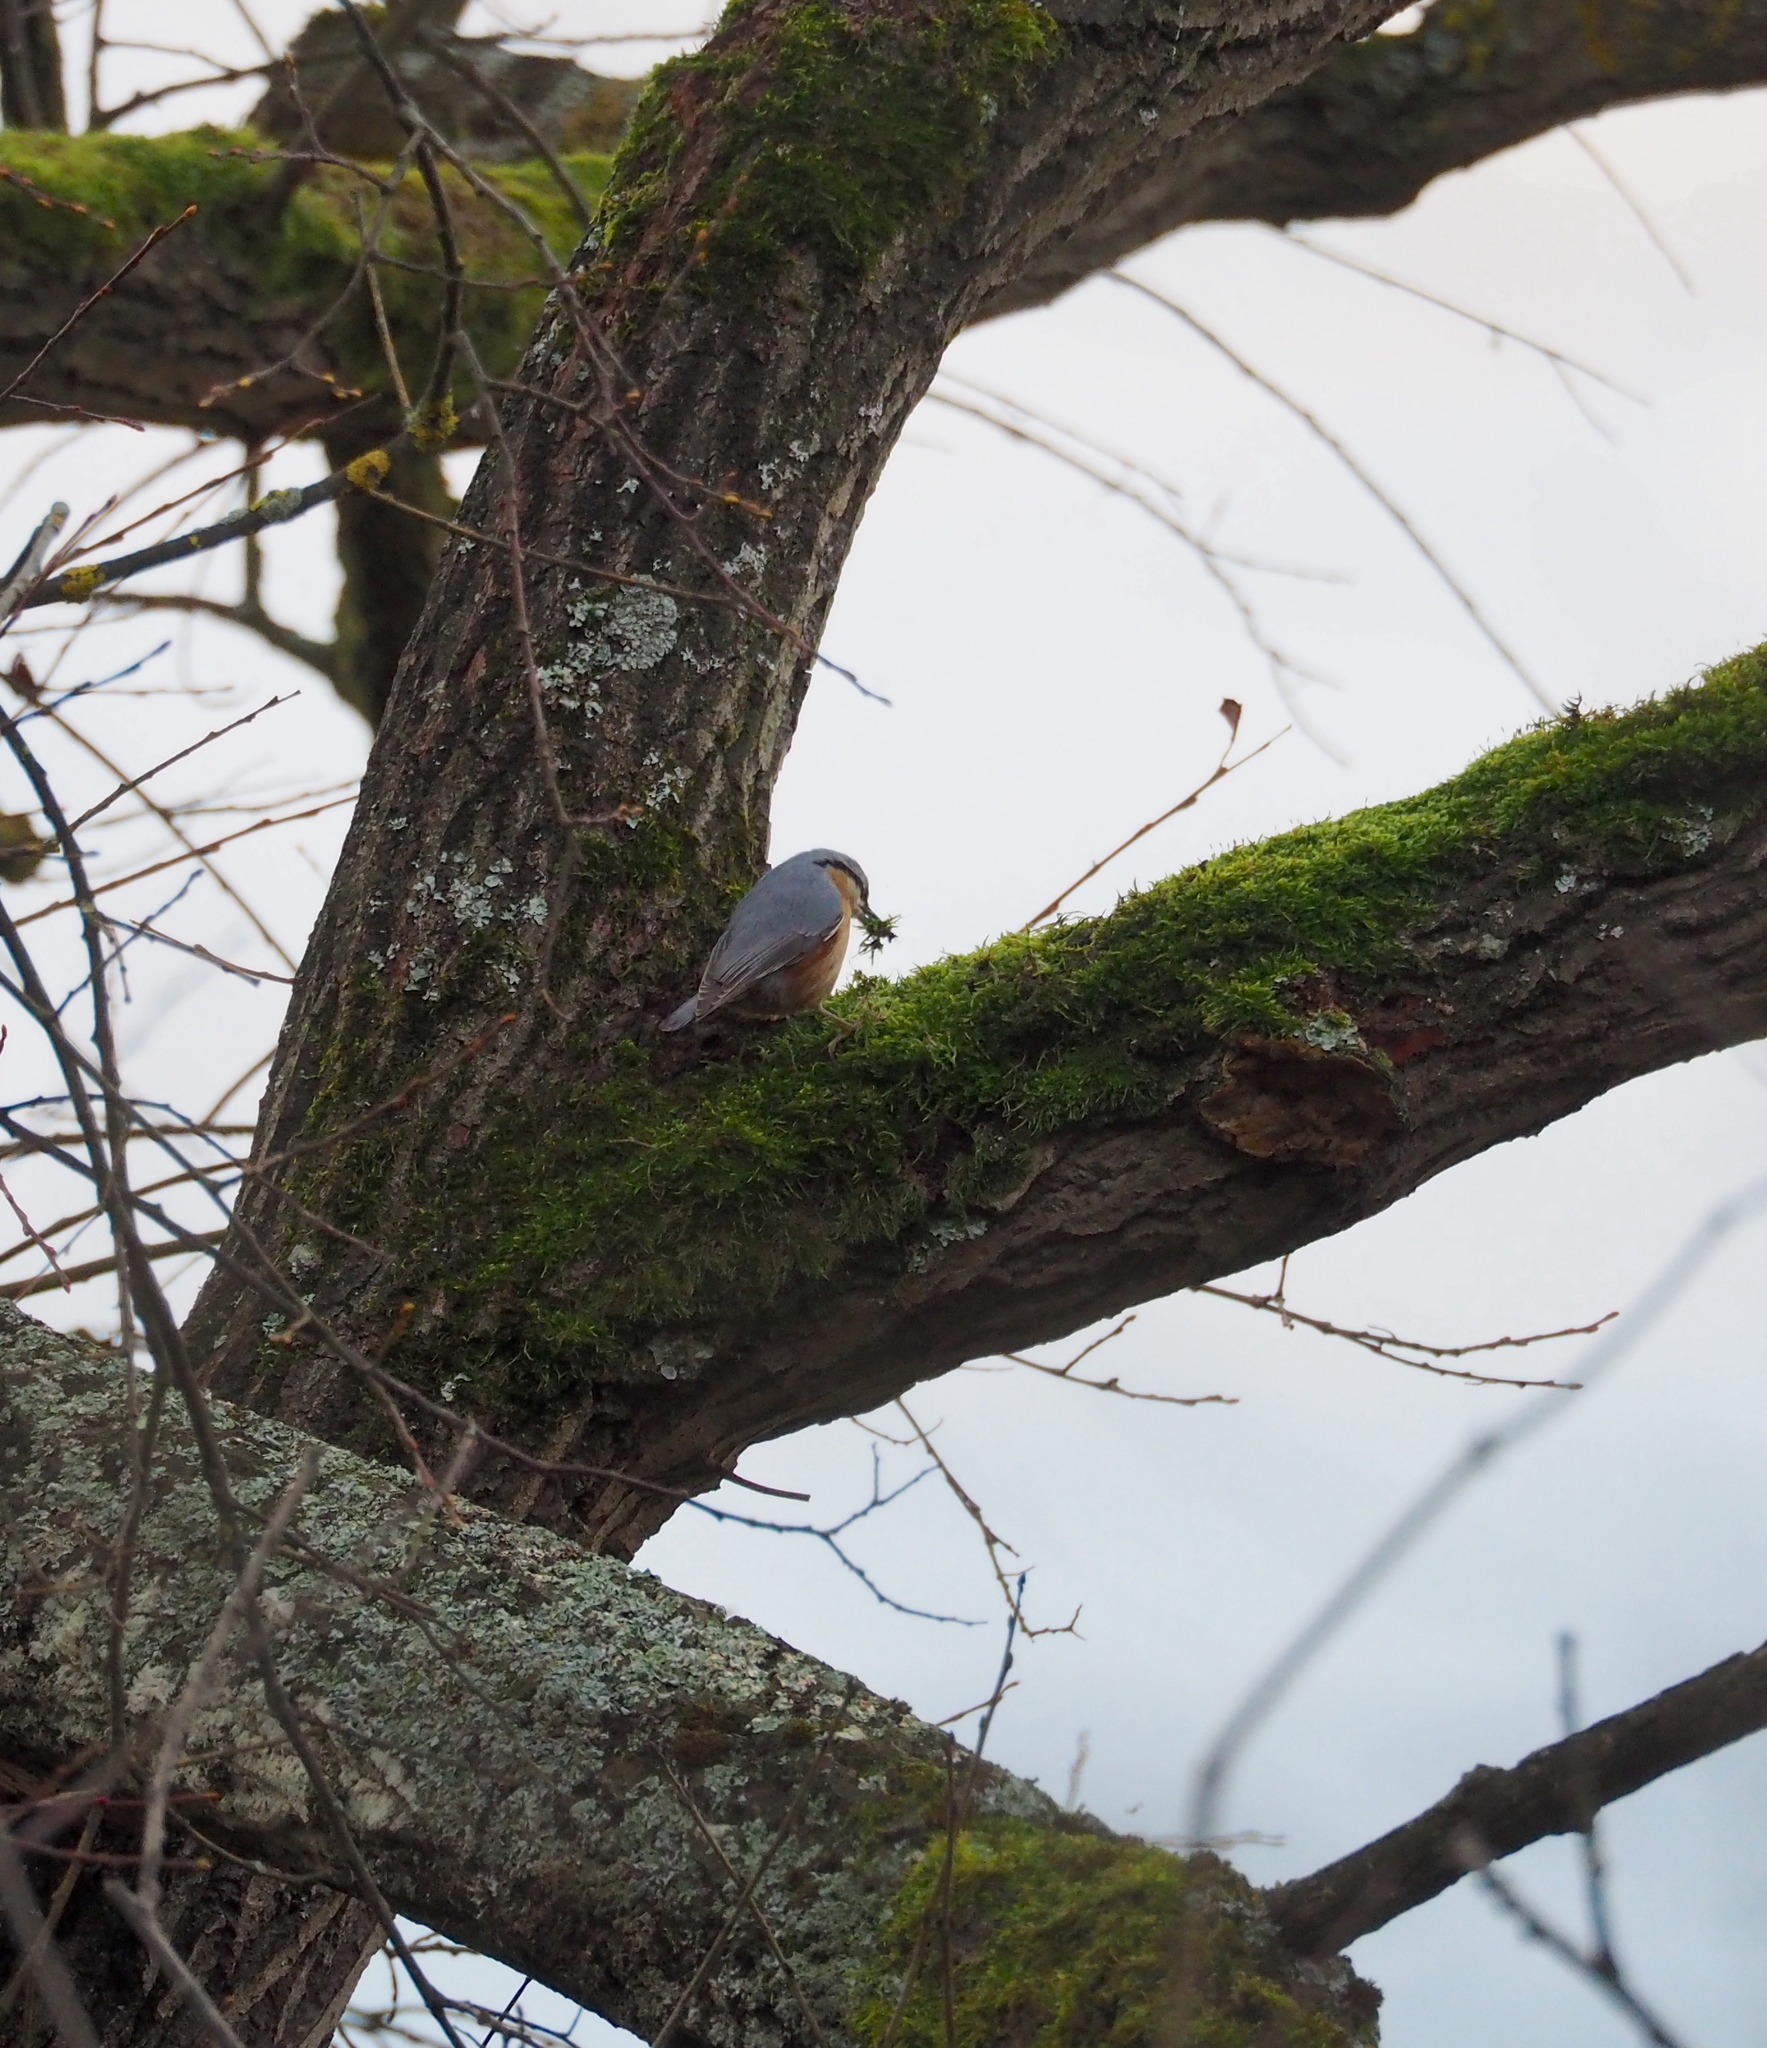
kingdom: Animalia
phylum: Chordata
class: Aves
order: Passeriformes
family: Sittidae
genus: Sitta
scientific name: Sitta europaea
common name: Eurasian nuthatch
